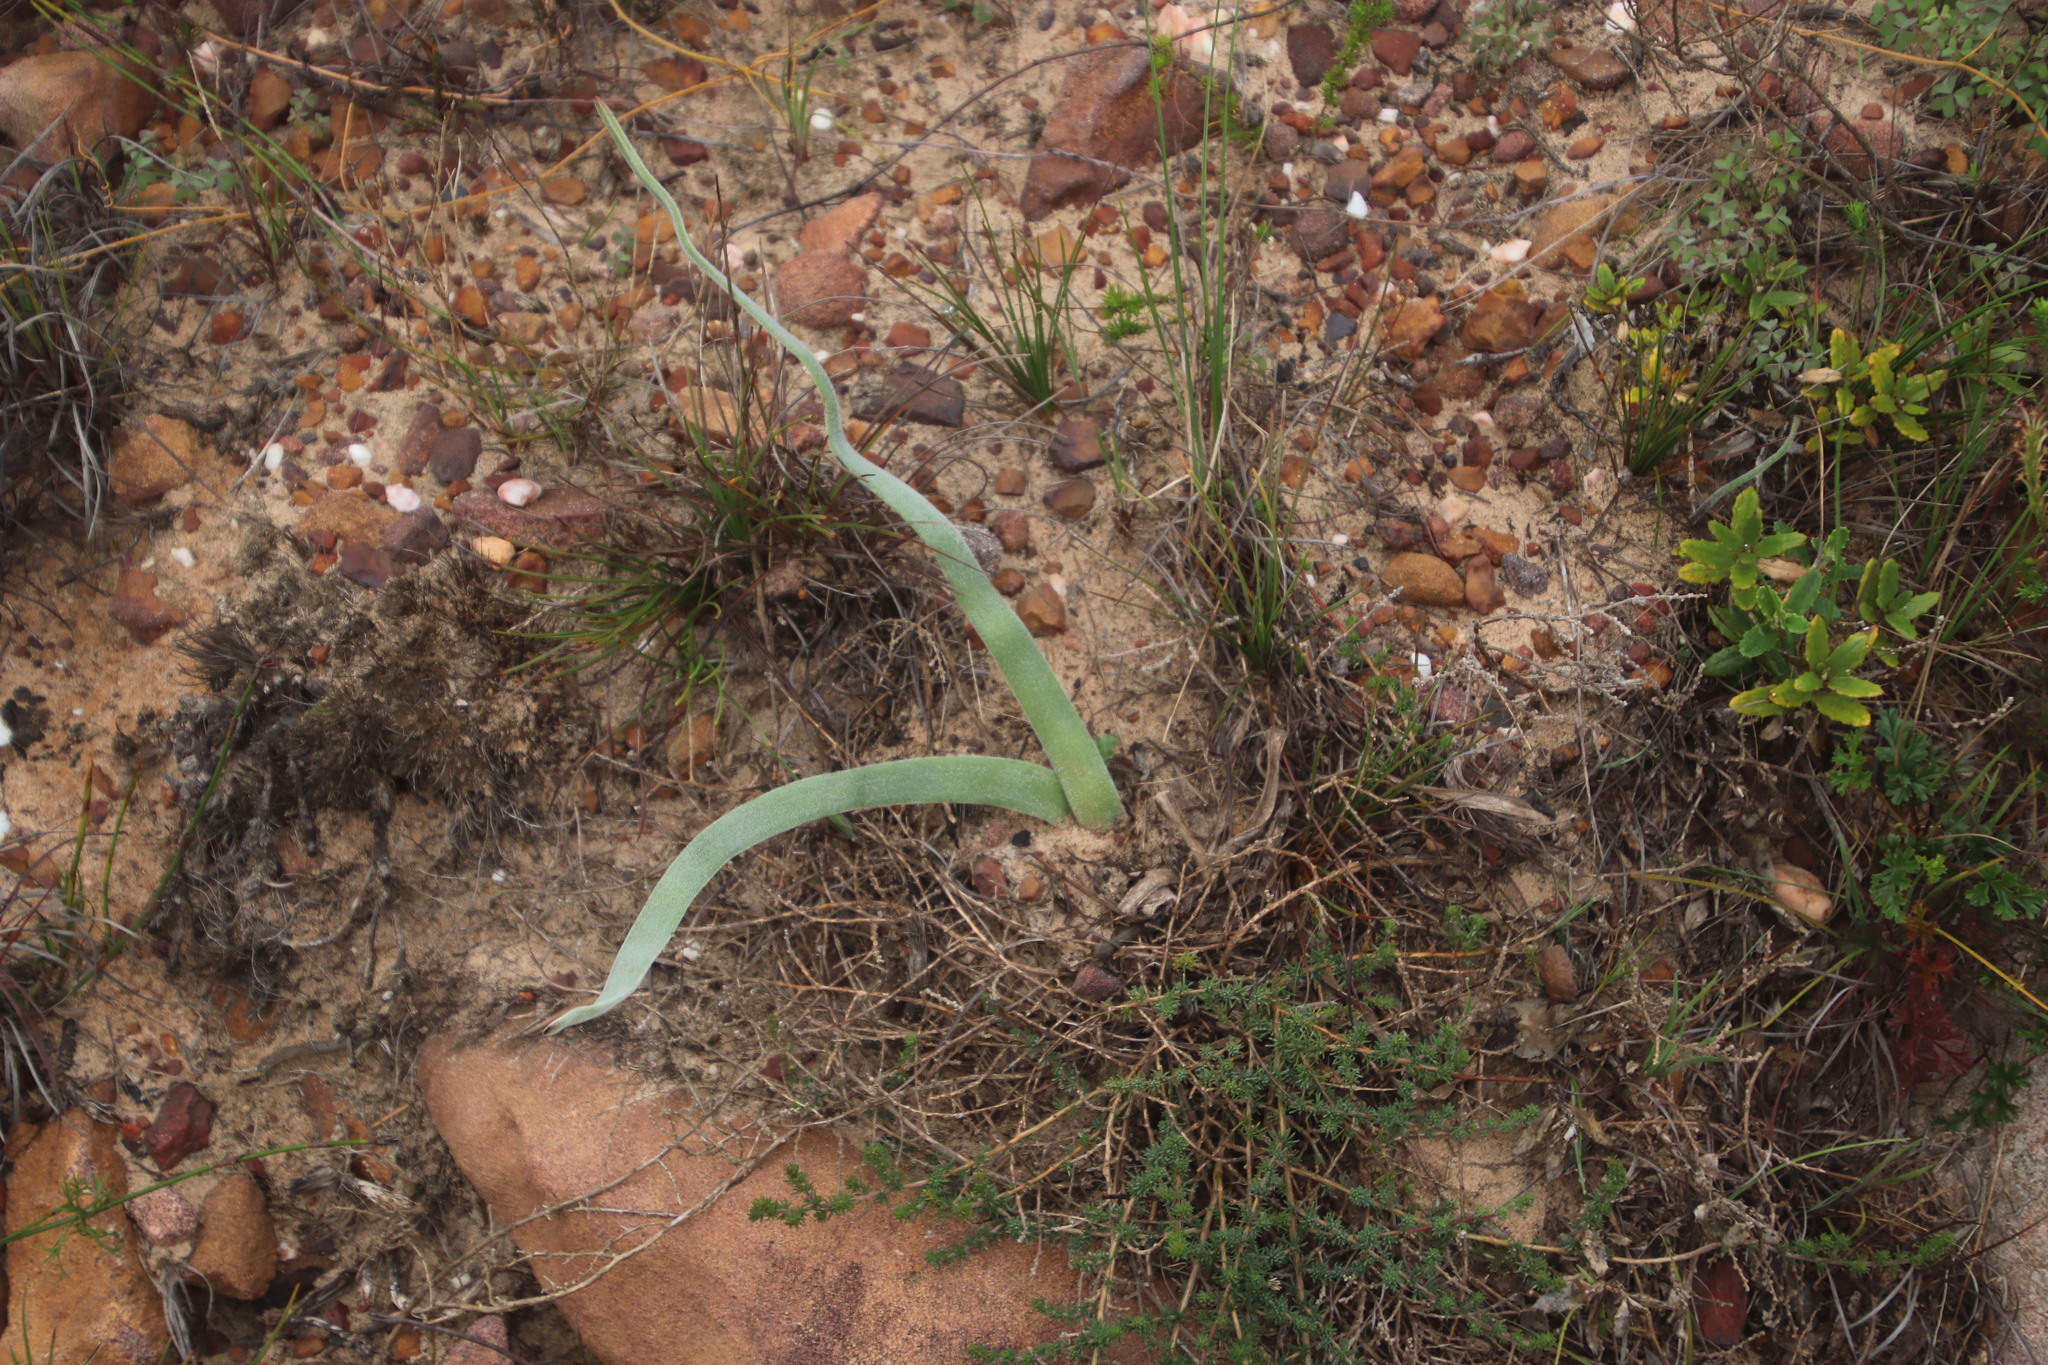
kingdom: Plantae
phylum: Tracheophyta
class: Liliopsida
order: Asparagales
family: Asphodelaceae
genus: Trachyandra
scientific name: Trachyandra hispida
